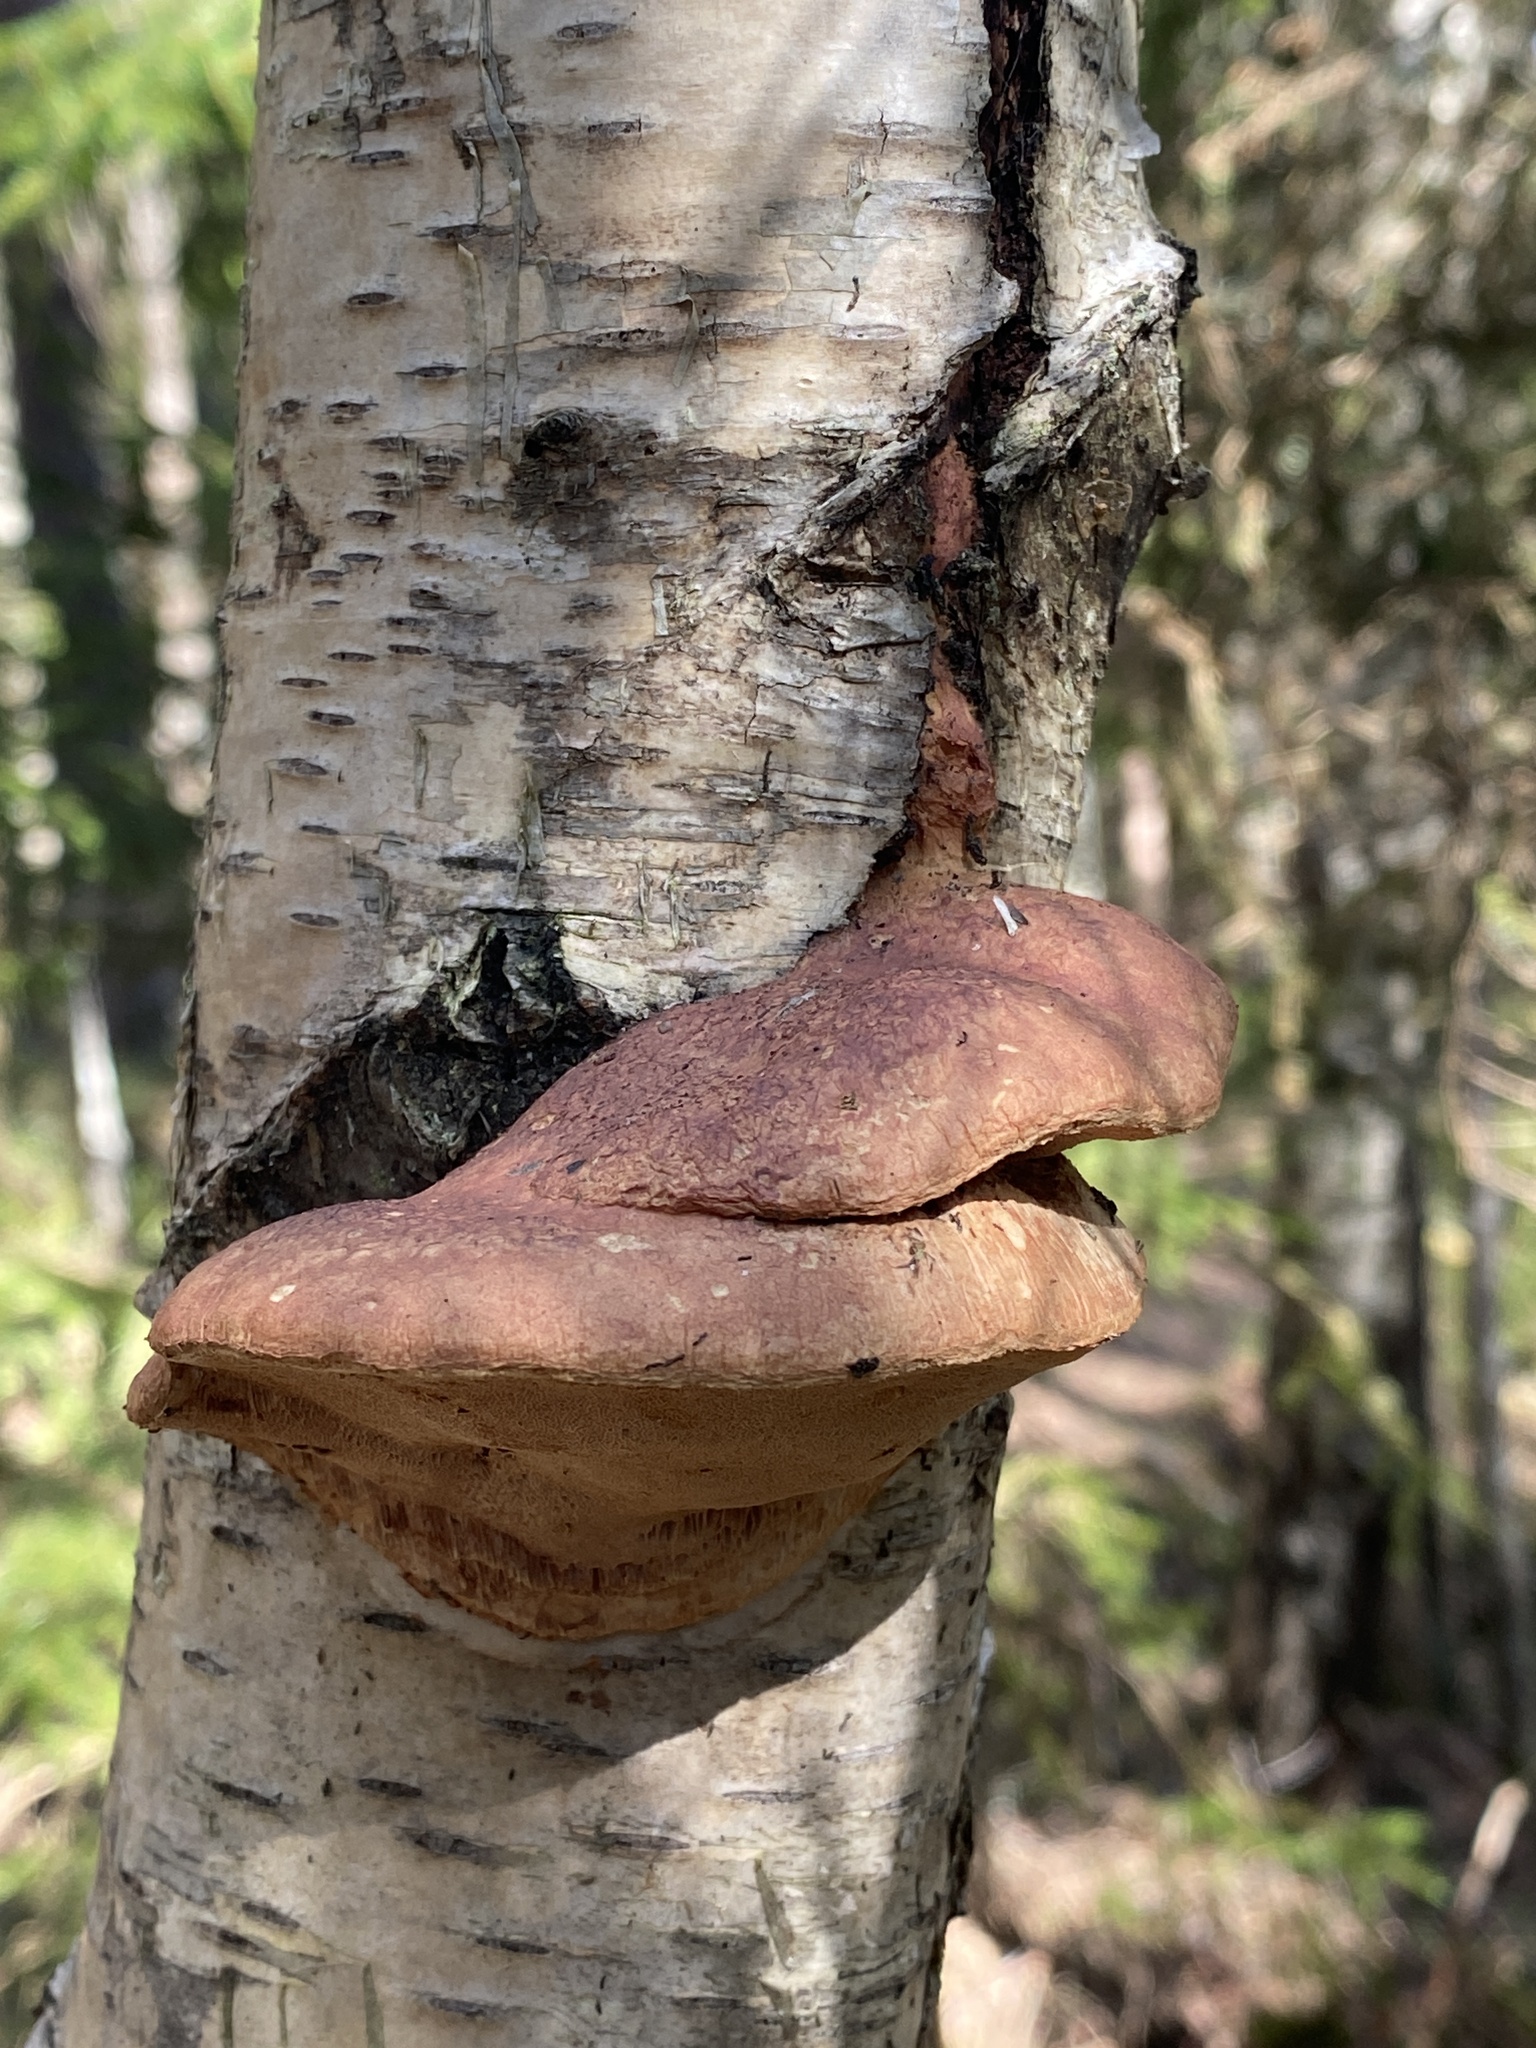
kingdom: Fungi
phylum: Basidiomycota
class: Agaricomycetes
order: Polyporales
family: Phanerochaetaceae
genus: Hapalopilus
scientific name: Hapalopilus rutilans
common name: Tender nesting polypore
